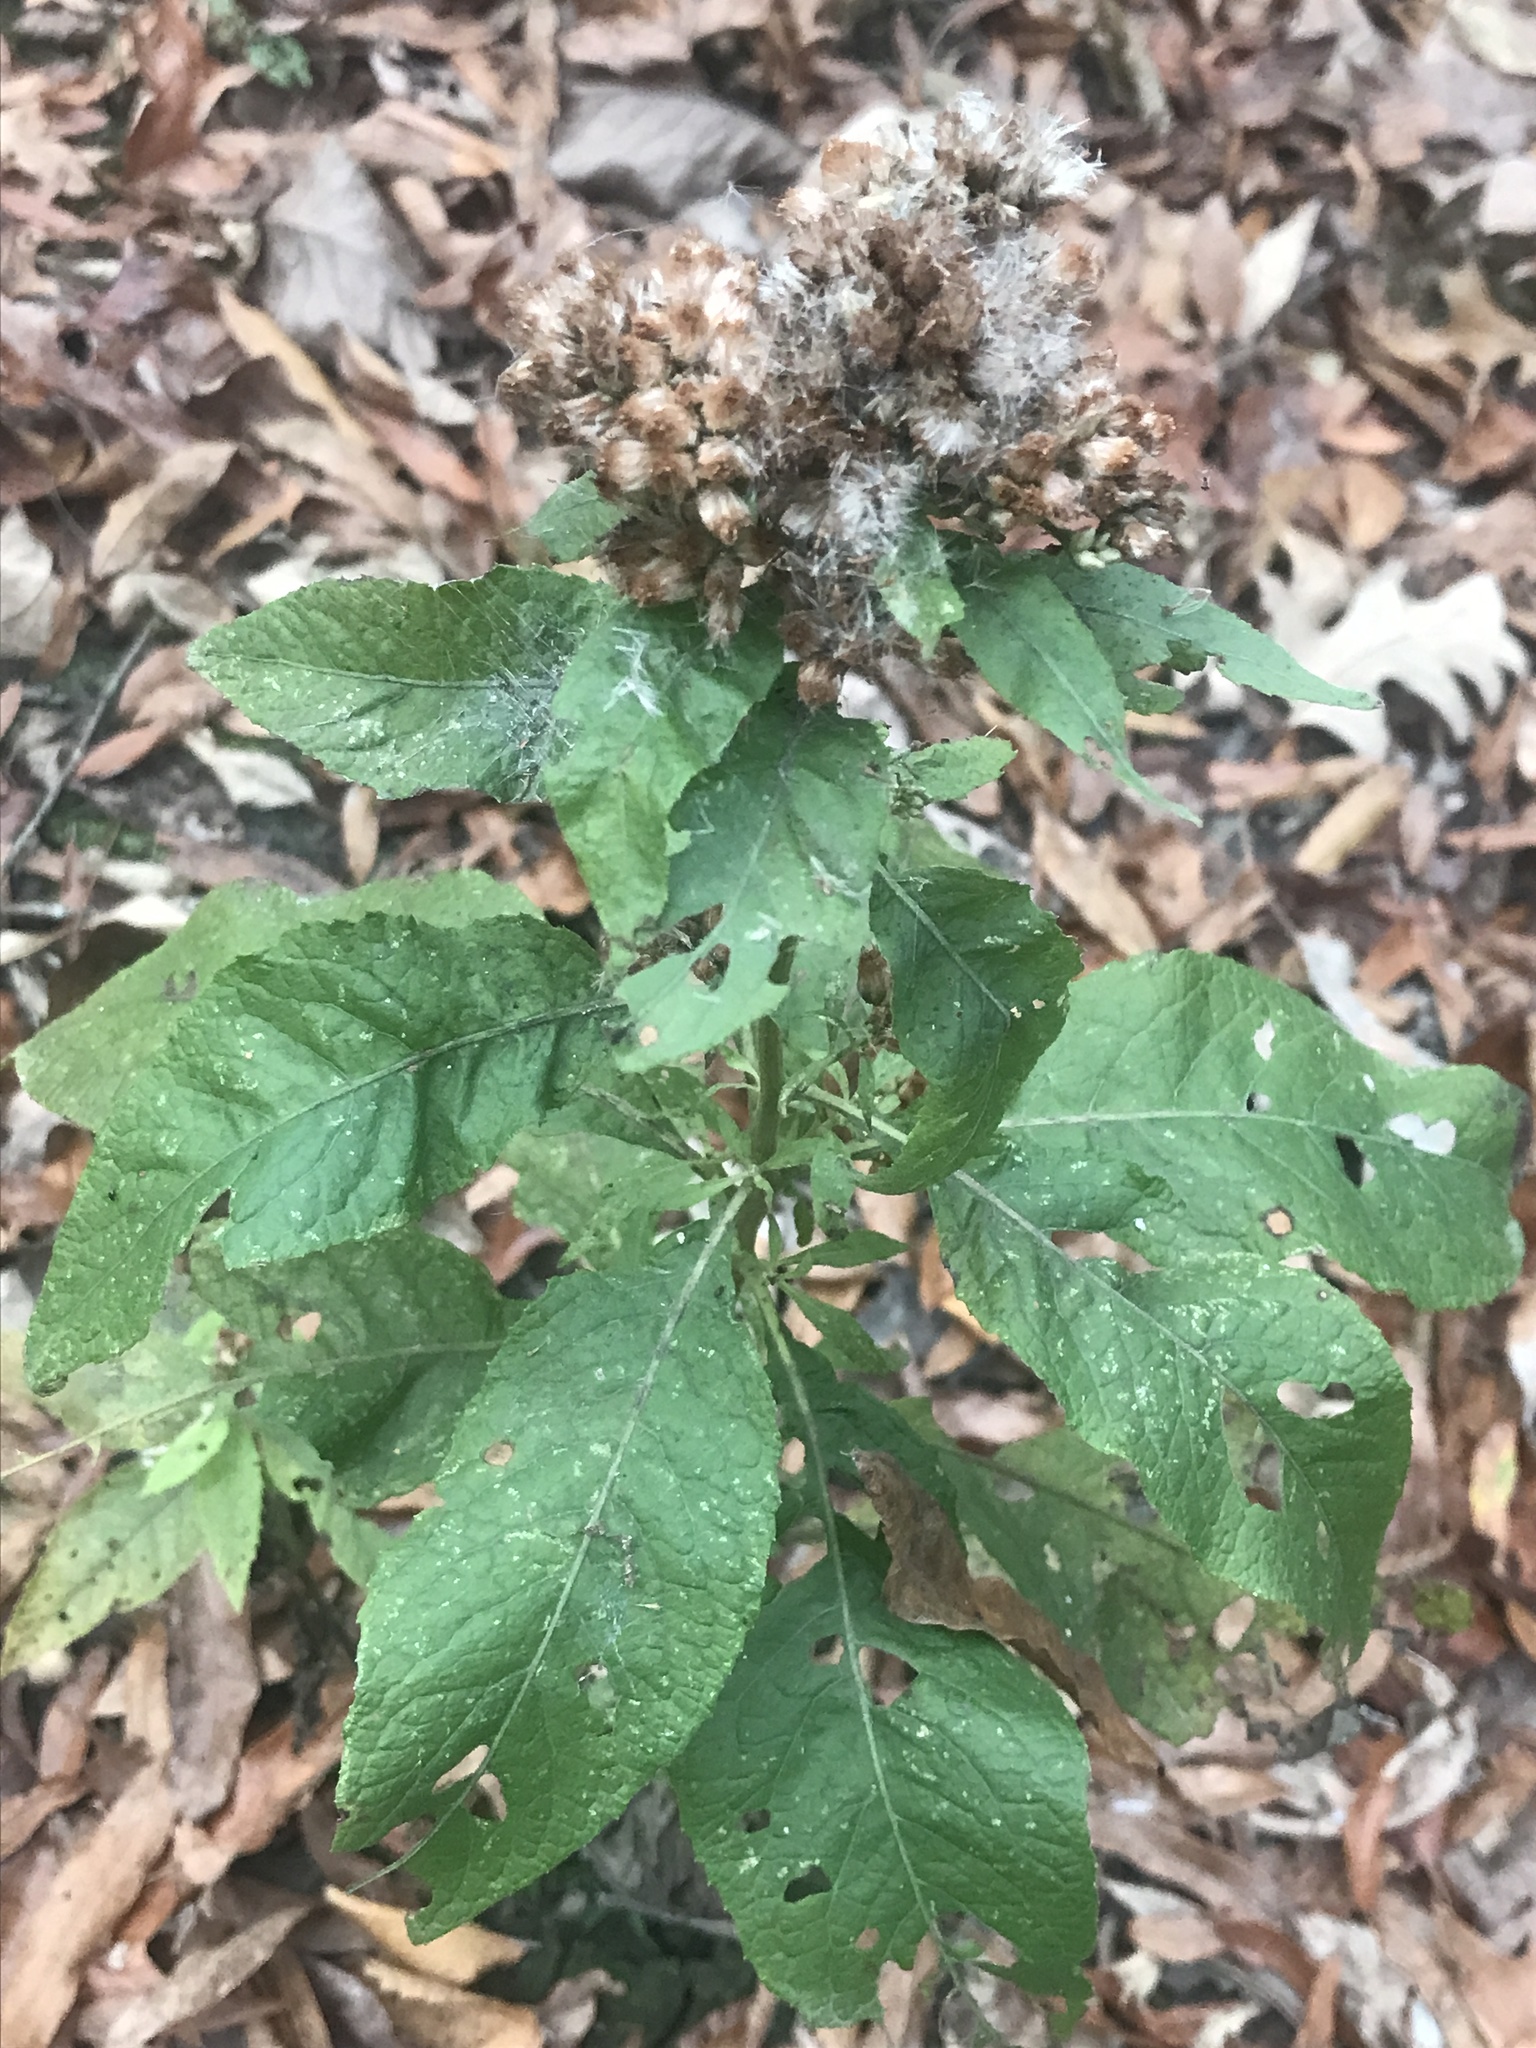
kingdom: Plantae
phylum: Tracheophyta
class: Magnoliopsida
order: Asterales
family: Asteraceae
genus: Pluchea
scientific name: Pluchea camphorata
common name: Camphor pluchea
